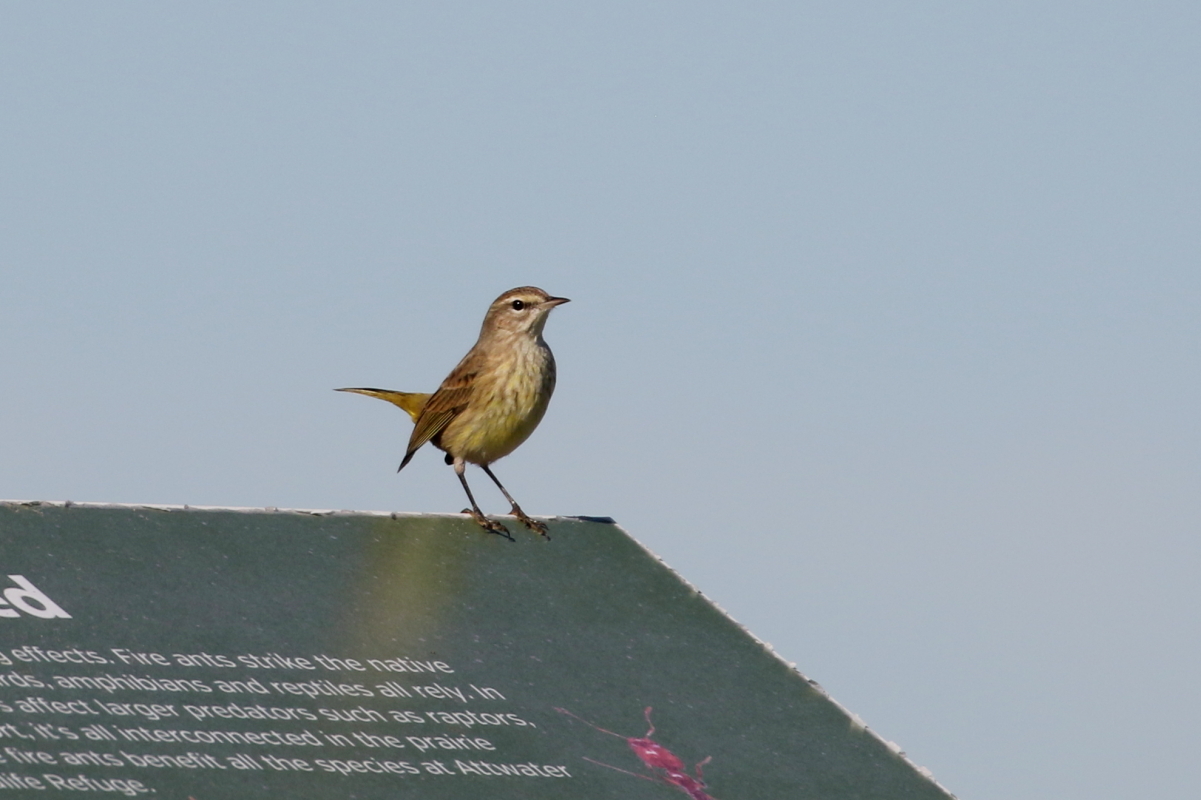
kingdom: Animalia
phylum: Chordata
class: Aves
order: Passeriformes
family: Parulidae
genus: Setophaga
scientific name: Setophaga palmarum
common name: Palm warbler
